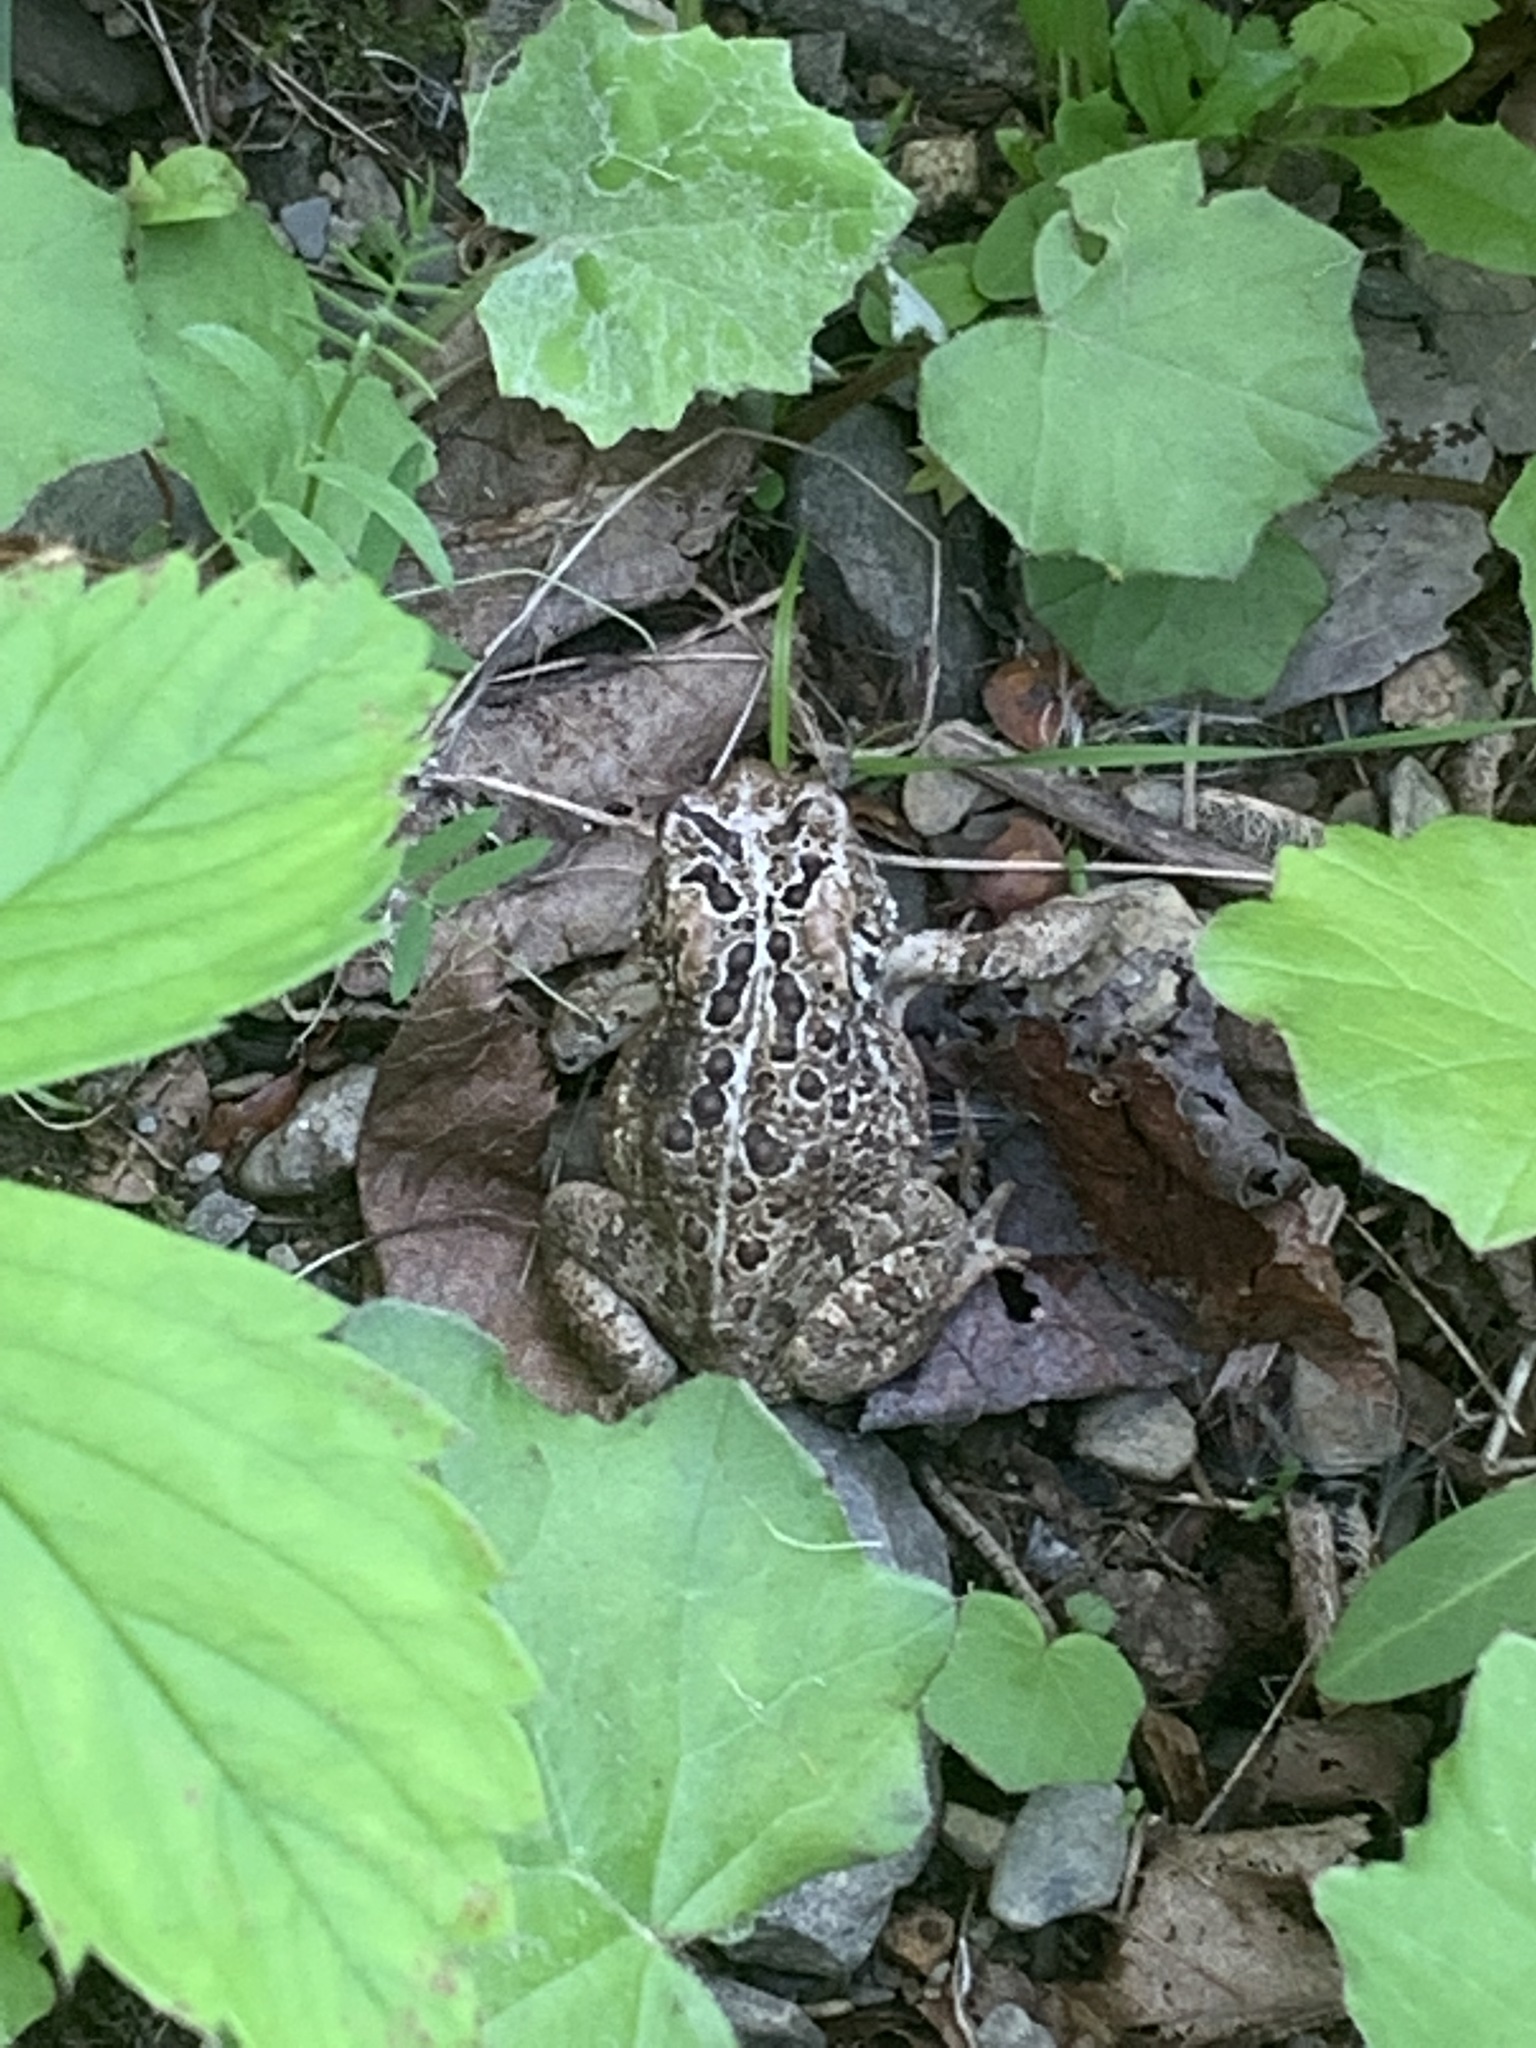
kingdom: Animalia
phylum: Chordata
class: Amphibia
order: Anura
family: Bufonidae
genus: Anaxyrus
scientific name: Anaxyrus americanus
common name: American toad
